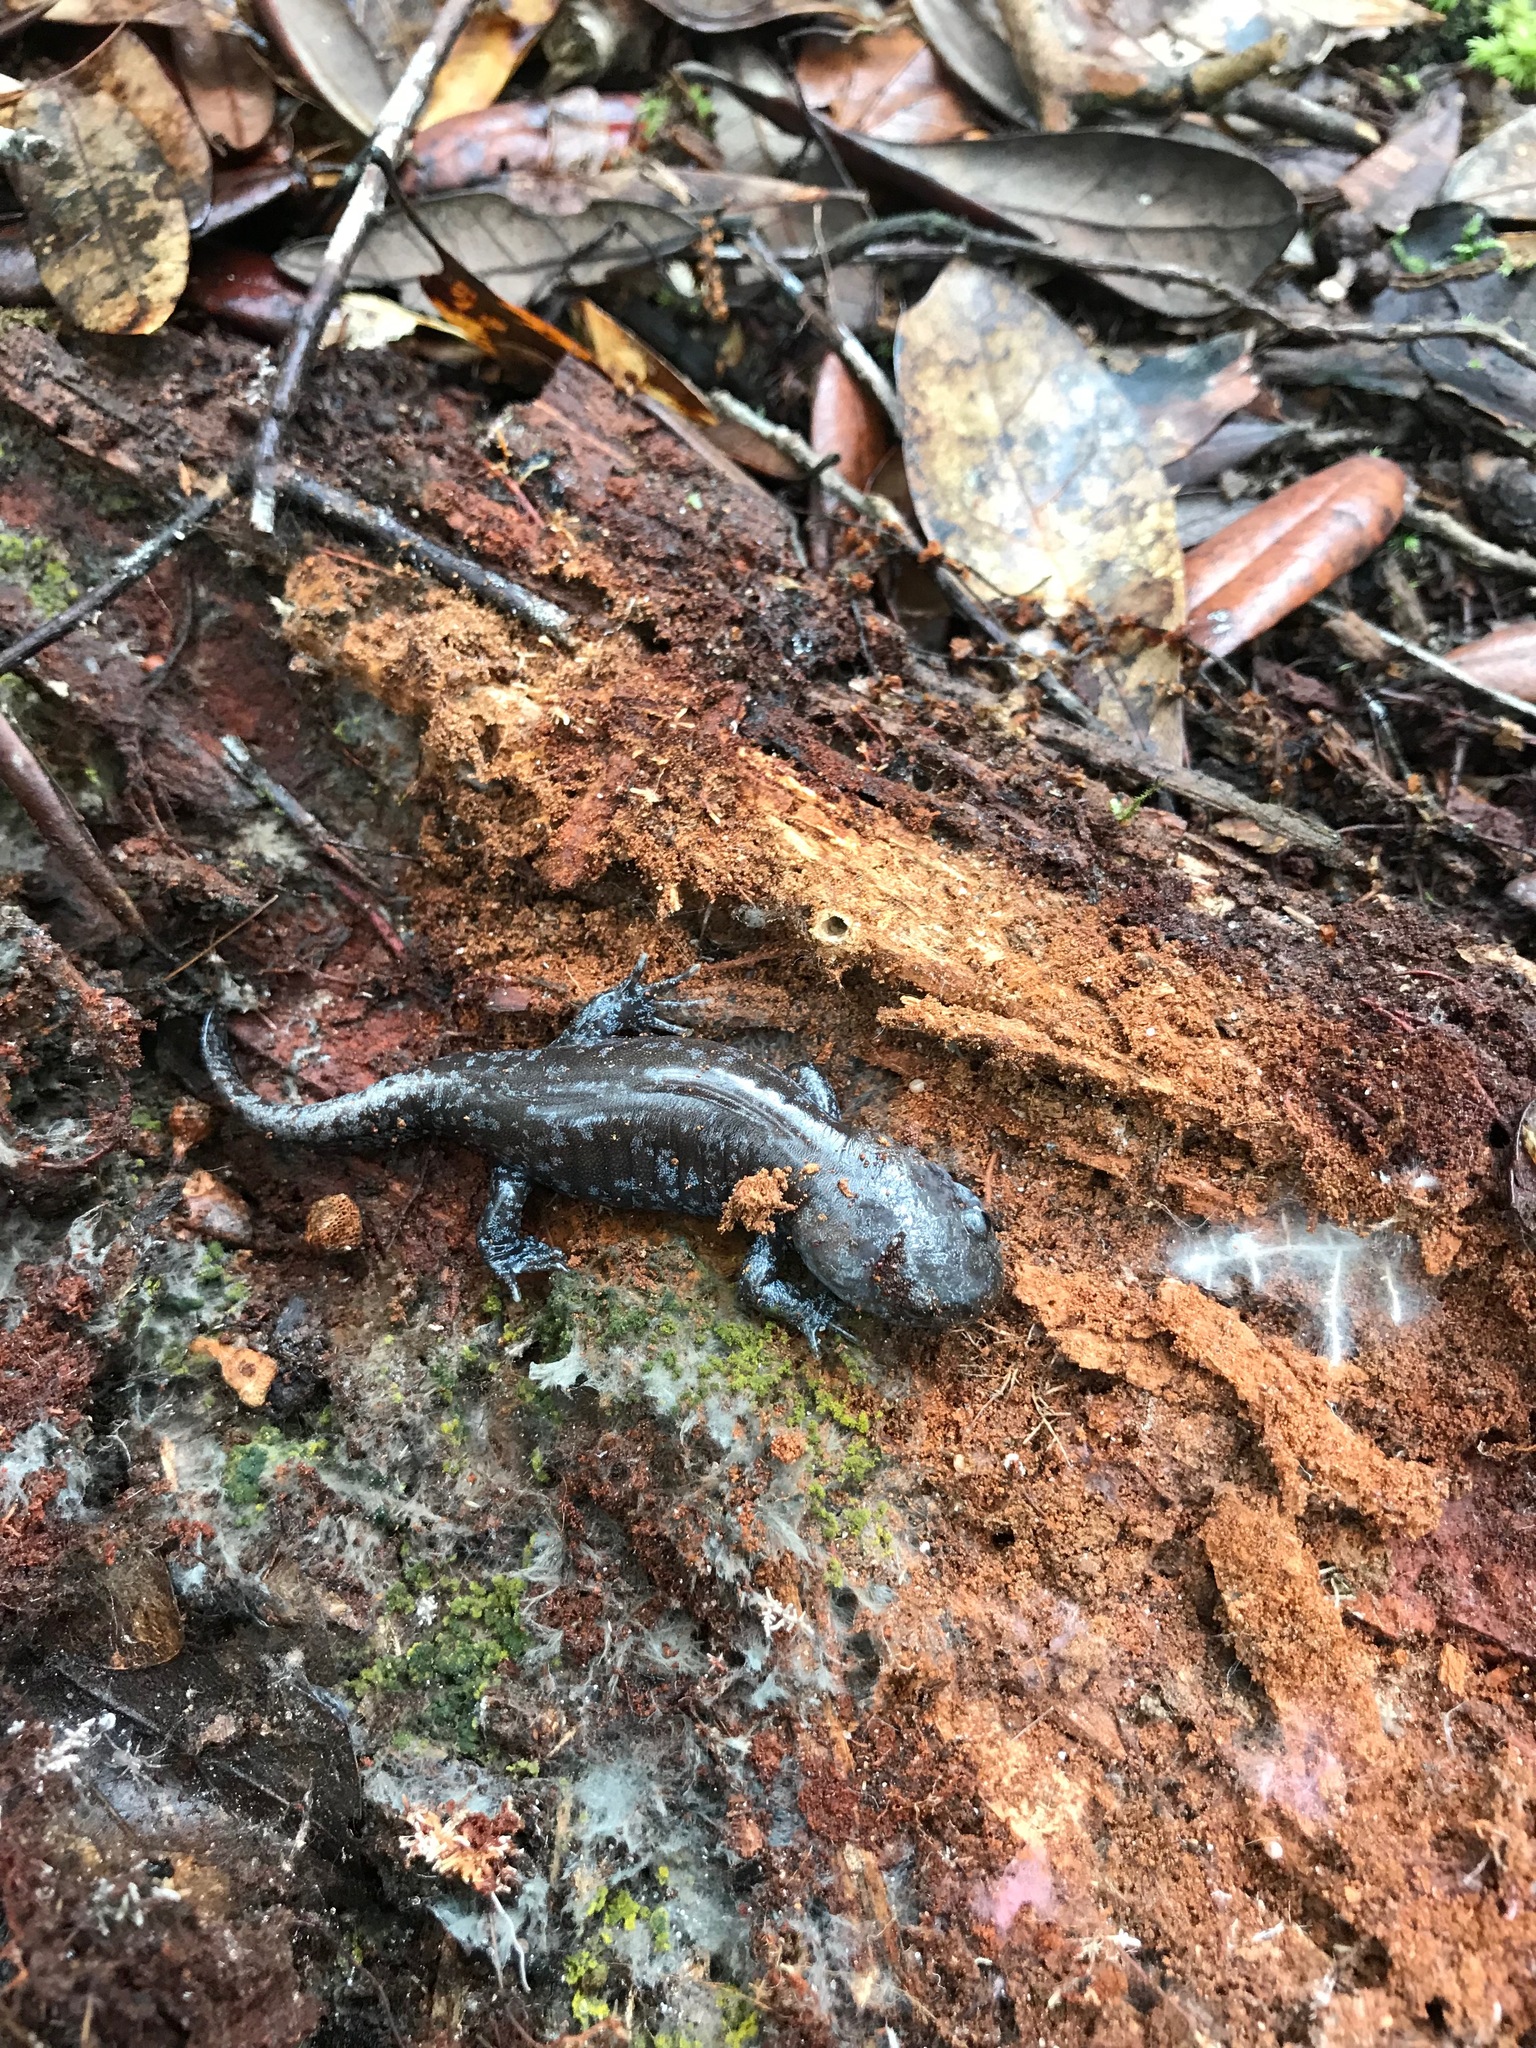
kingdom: Animalia
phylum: Chordata
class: Amphibia
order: Caudata
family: Ambystomatidae
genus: Ambystoma
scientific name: Ambystoma talpoideum
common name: Mole salamander
